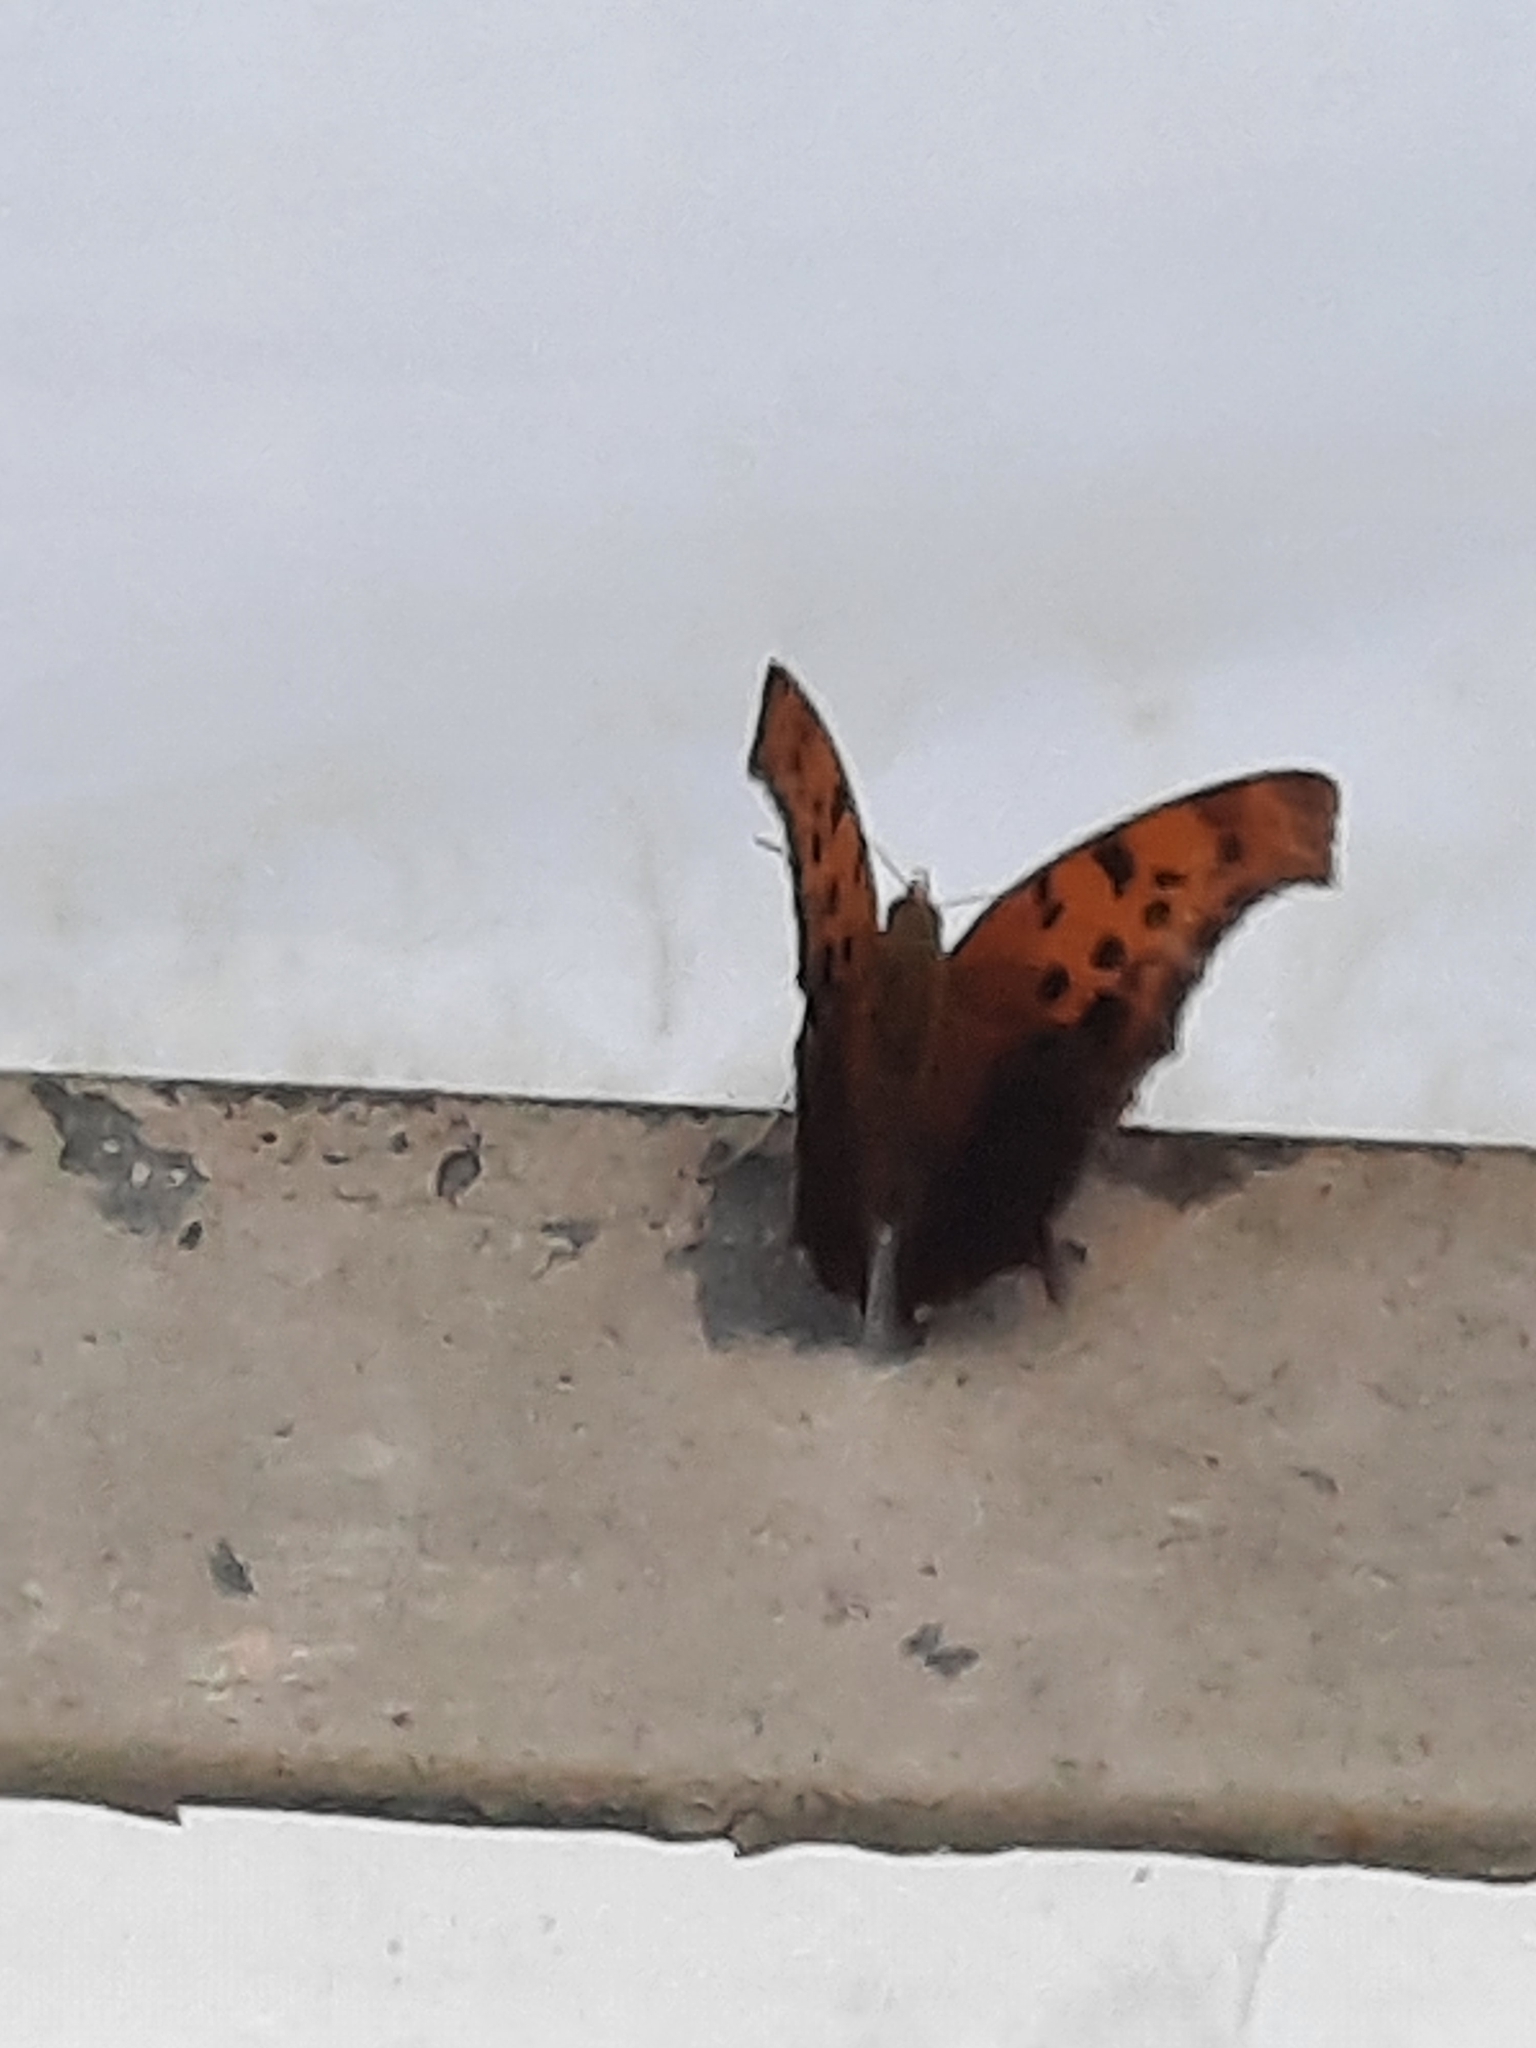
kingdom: Animalia
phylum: Arthropoda
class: Insecta
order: Lepidoptera
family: Nymphalidae
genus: Polygonia
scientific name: Polygonia interrogationis
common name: Question mark
